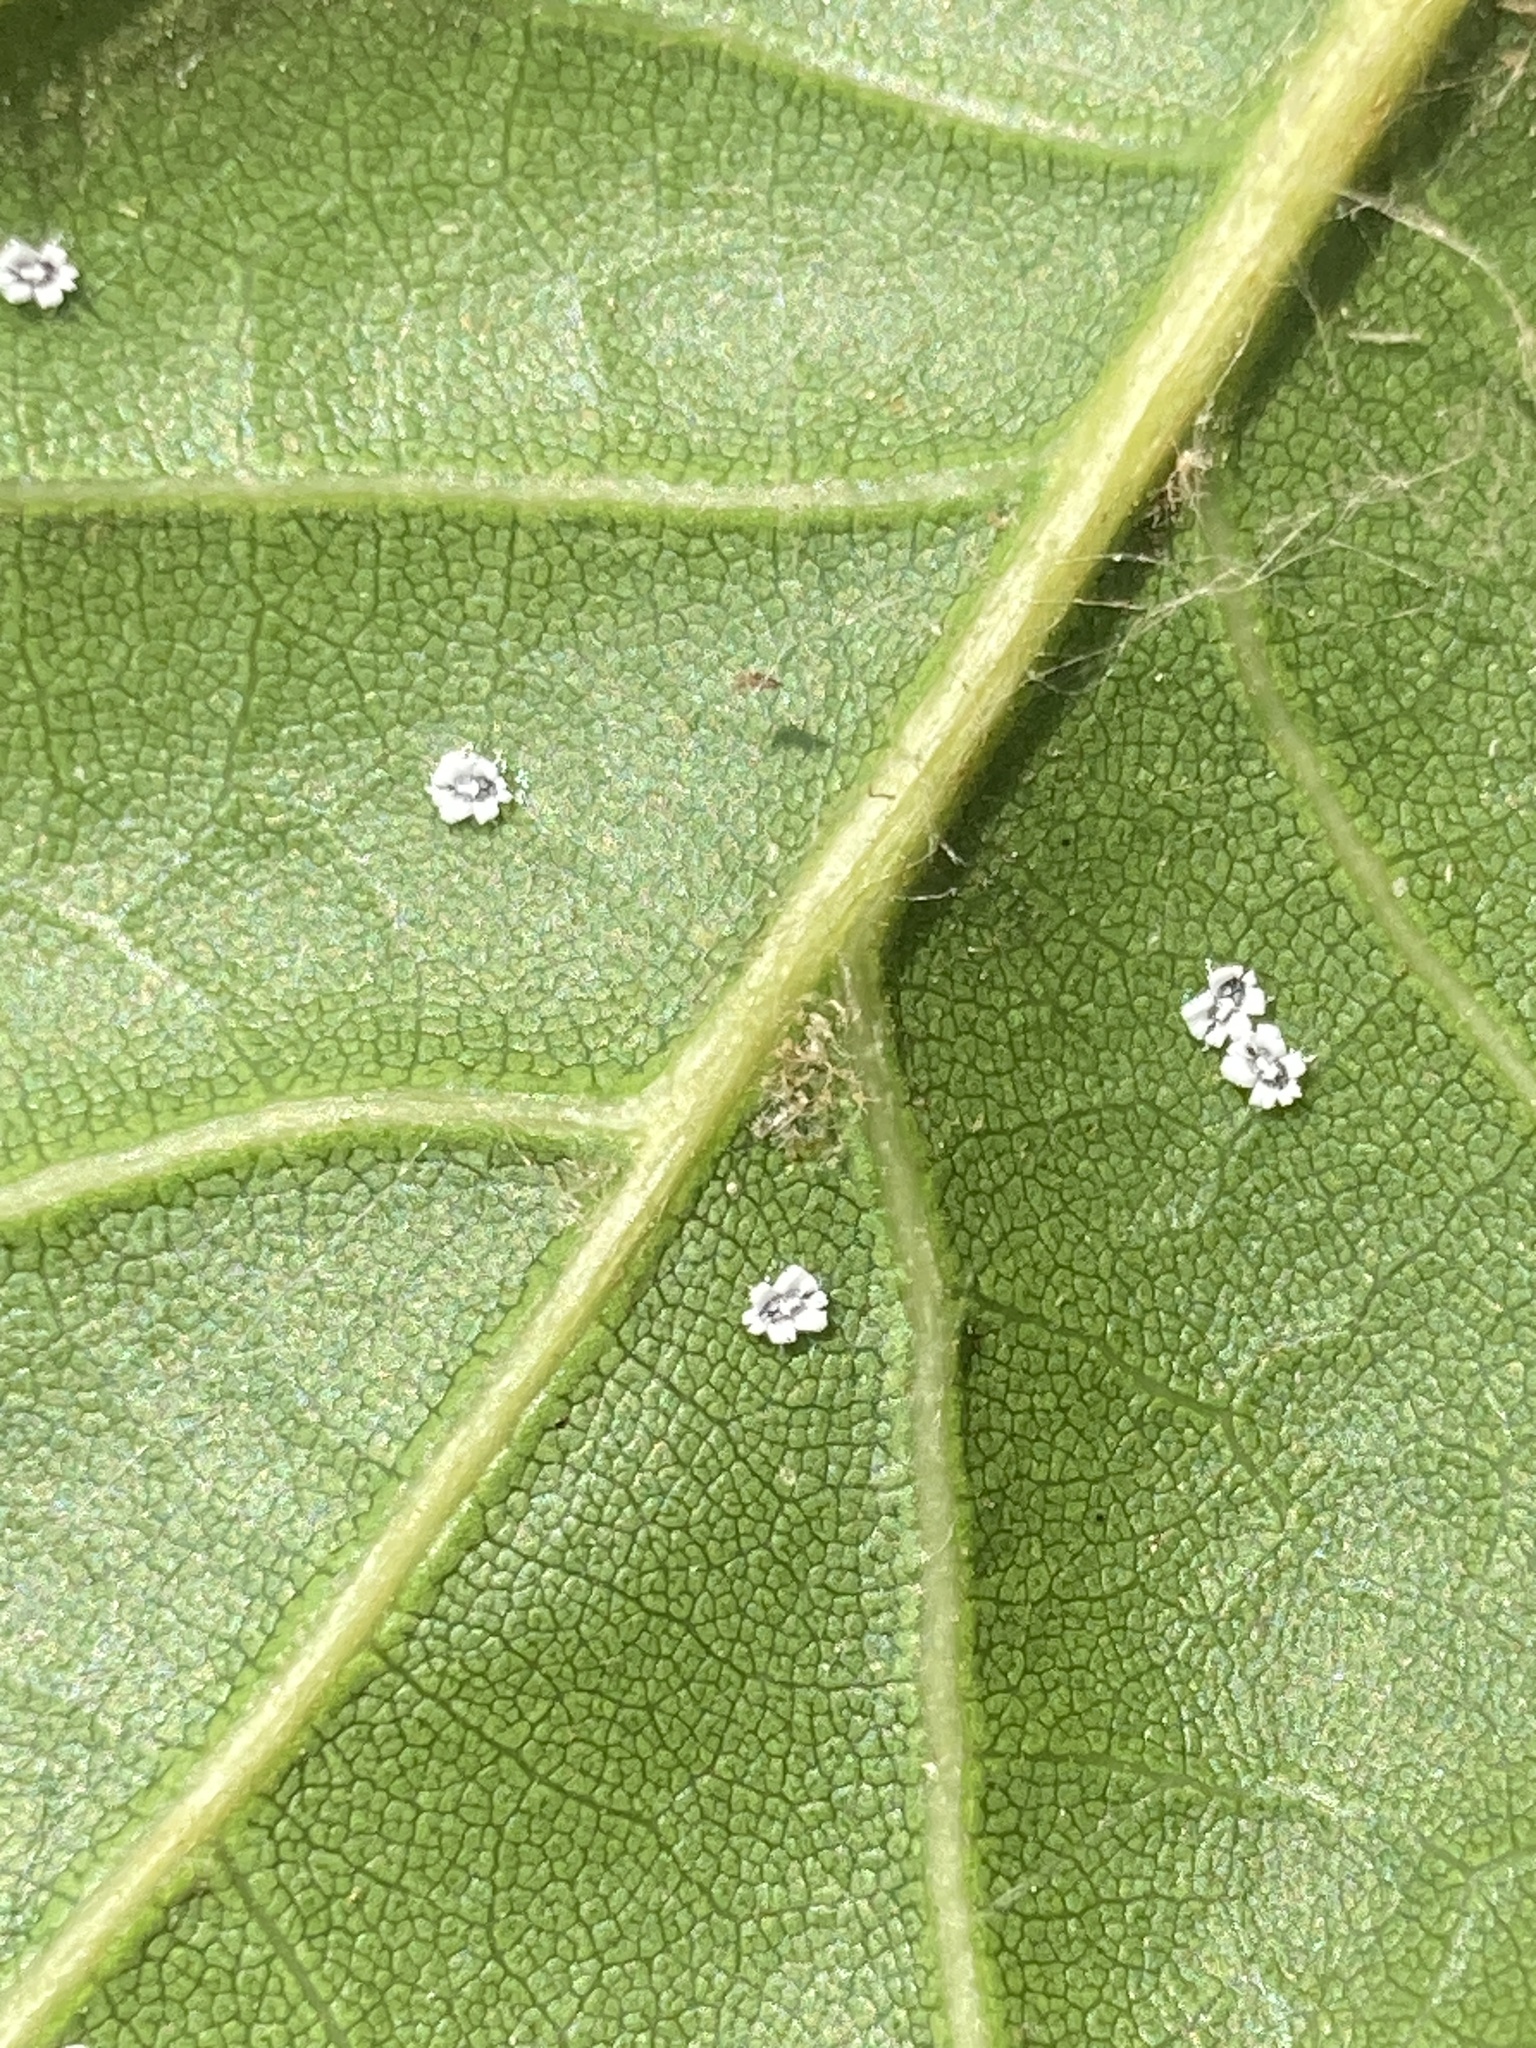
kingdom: Animalia
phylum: Arthropoda
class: Insecta
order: Hemiptera
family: Aleyrodidae
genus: Aleuroplatus
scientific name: Aleuroplatus coronata
